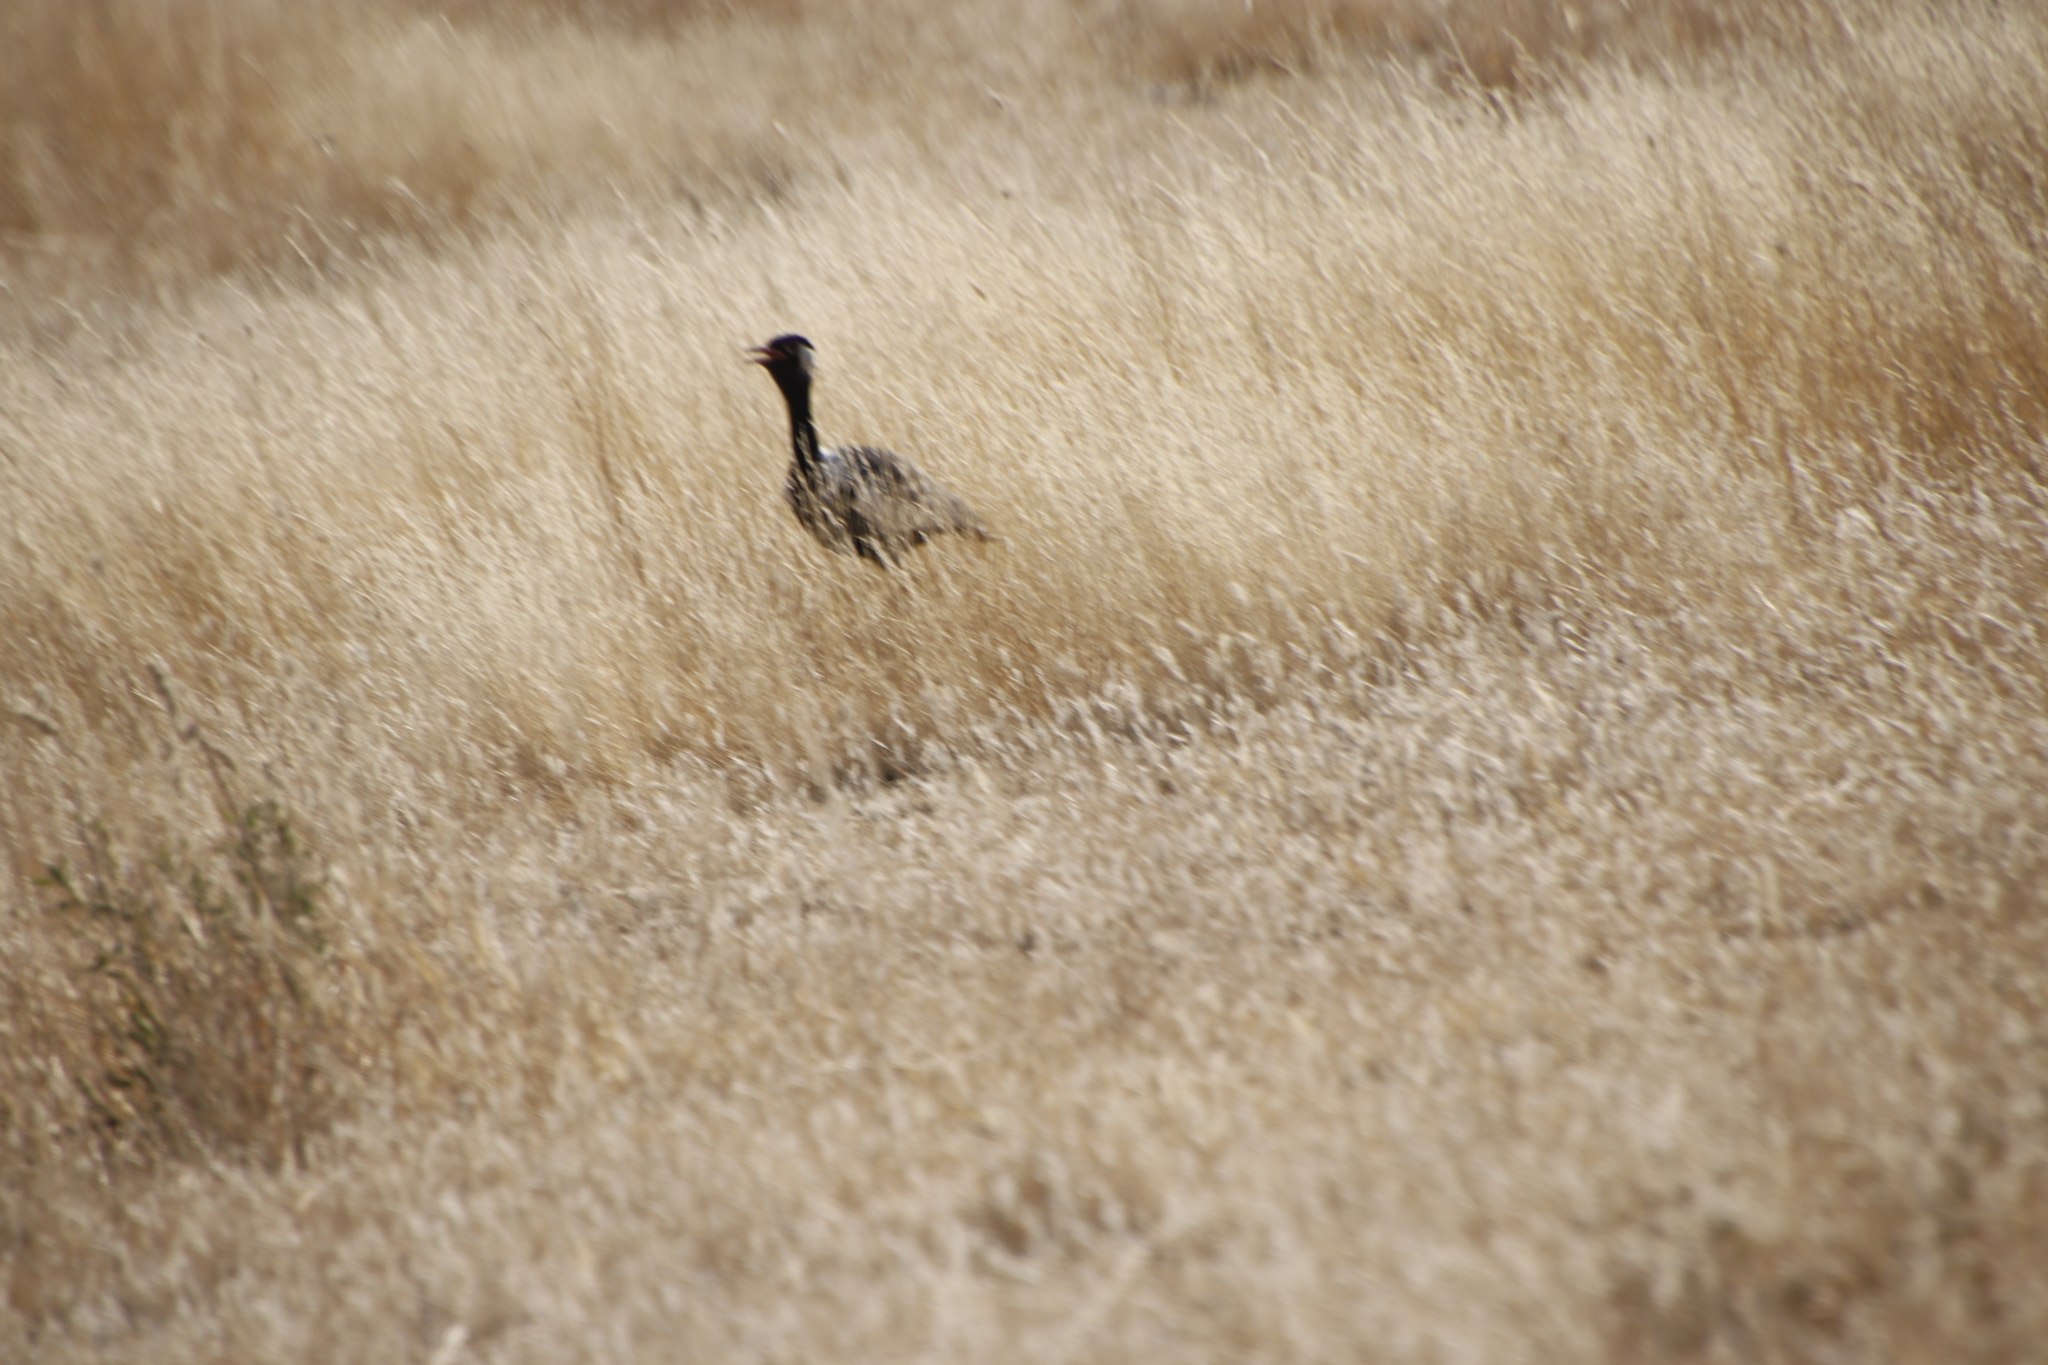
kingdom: Animalia
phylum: Chordata
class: Aves
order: Otidiformes
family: Otididae
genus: Afrotis
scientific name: Afrotis afraoides
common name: Northern black korhaan
